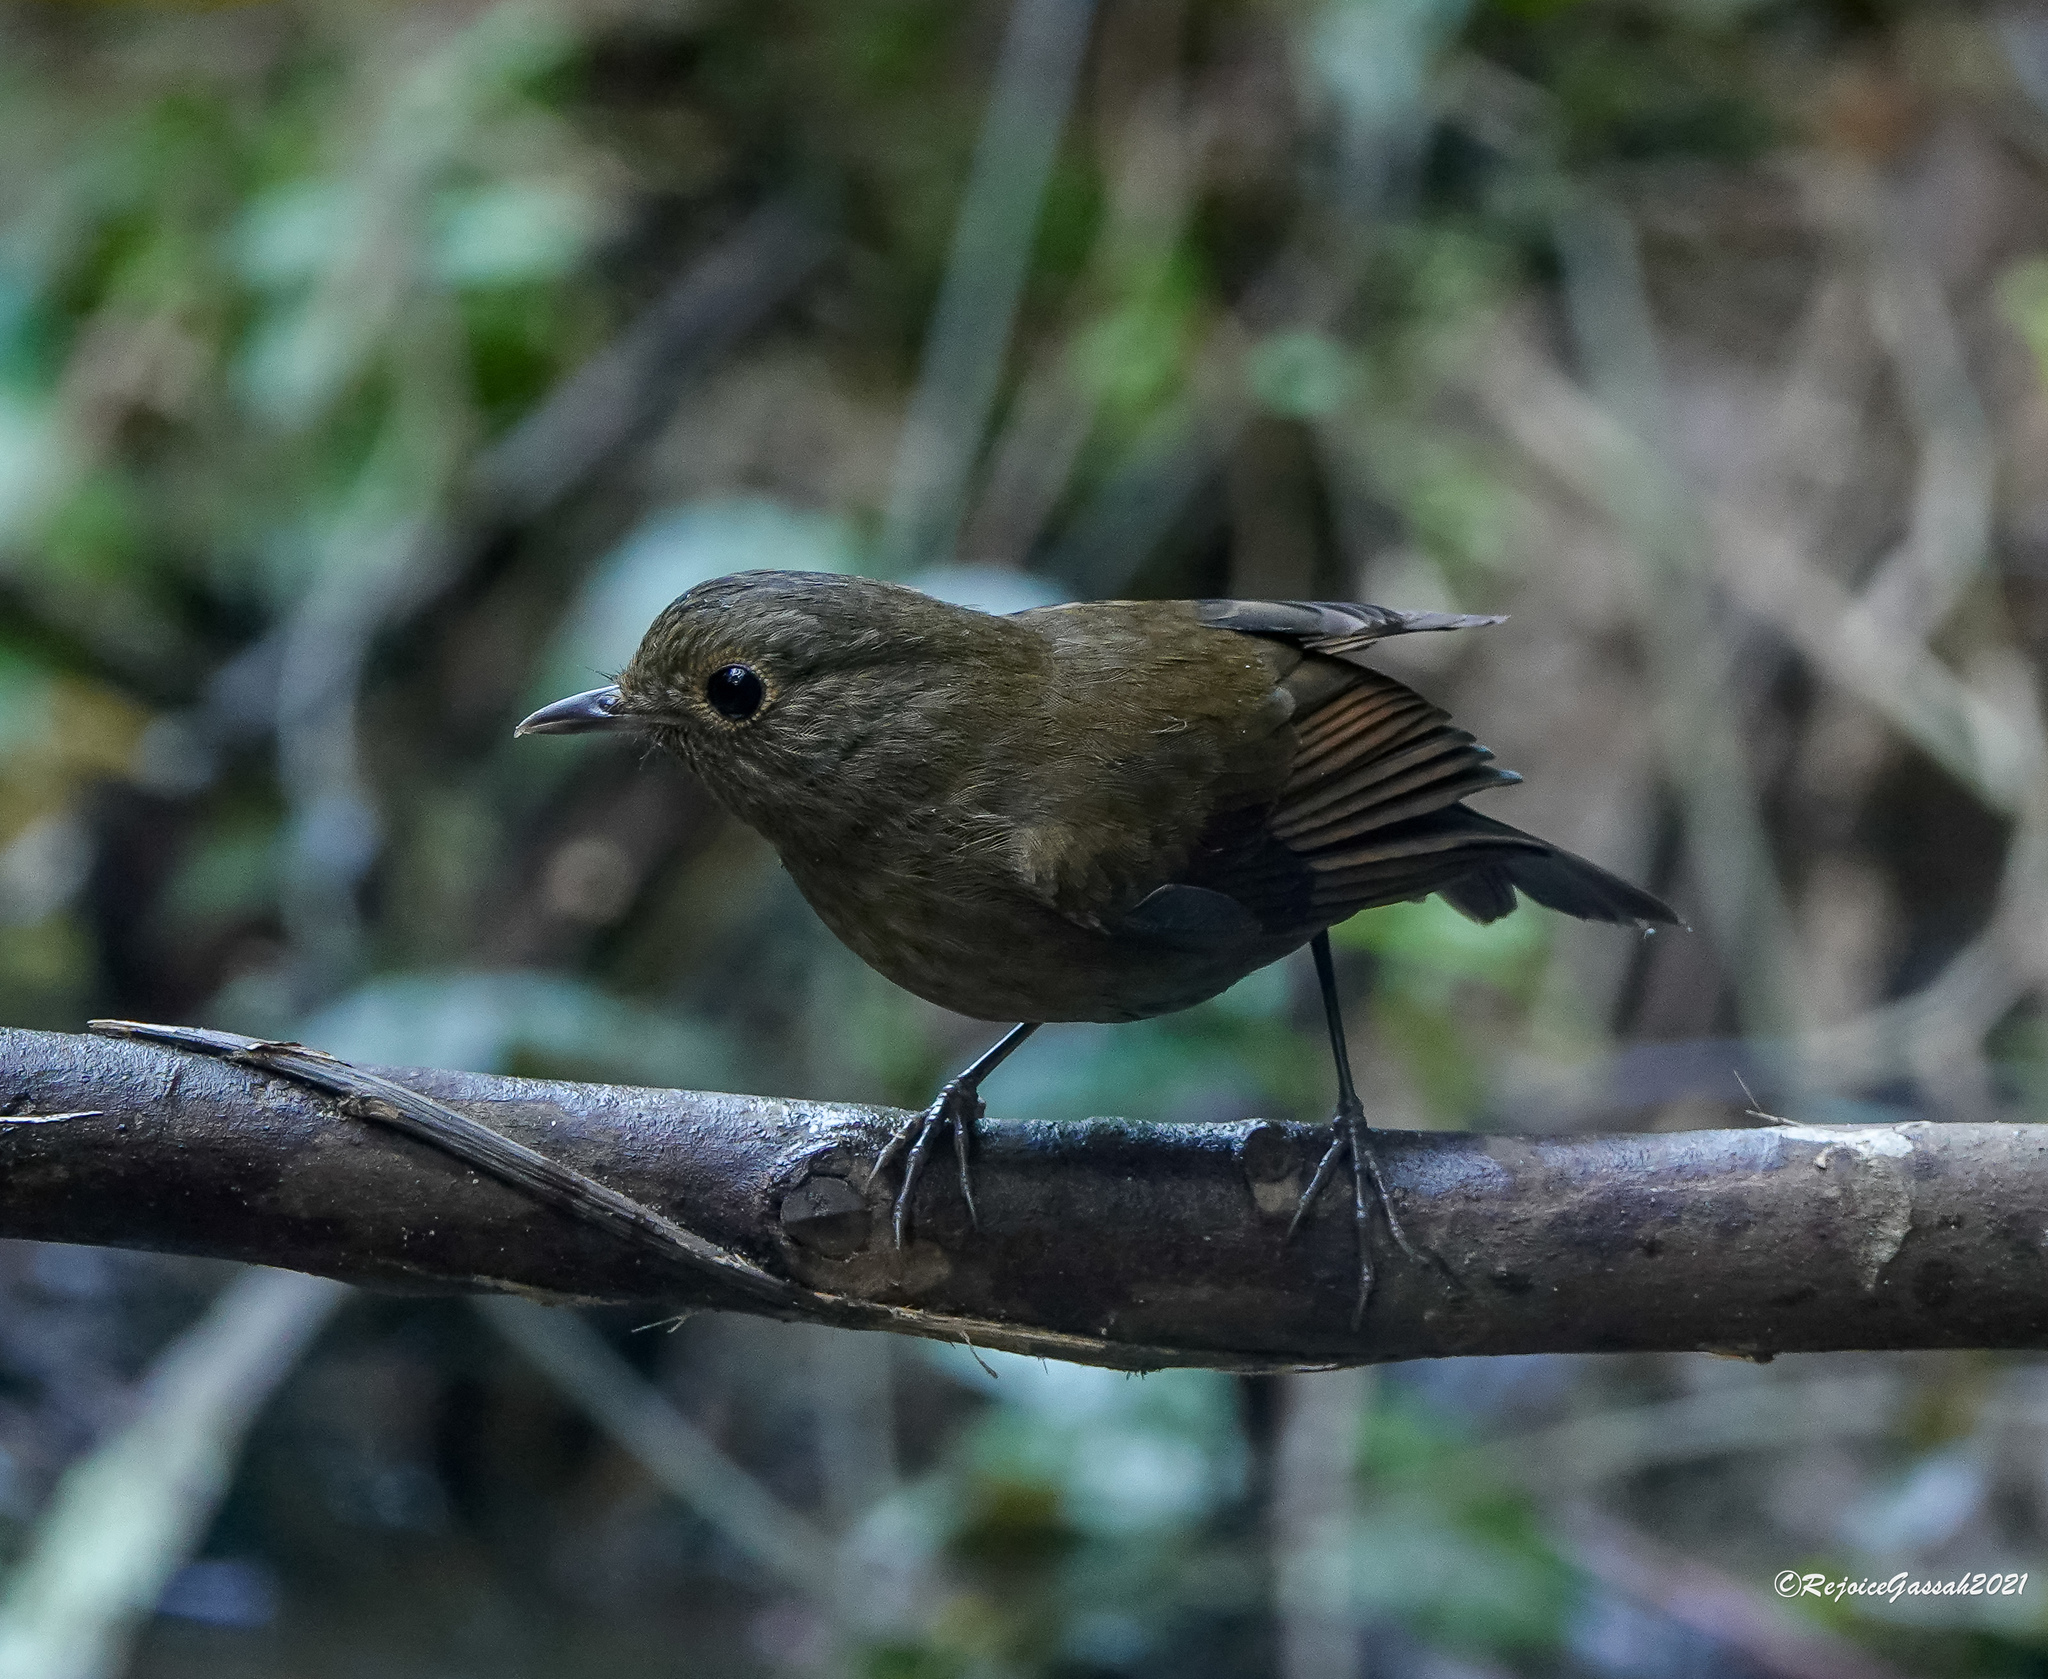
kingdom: Animalia
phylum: Chordata
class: Aves
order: Passeriformes
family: Muscicapidae
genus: Myiomela
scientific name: Myiomela leucura
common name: White-tailed robin
